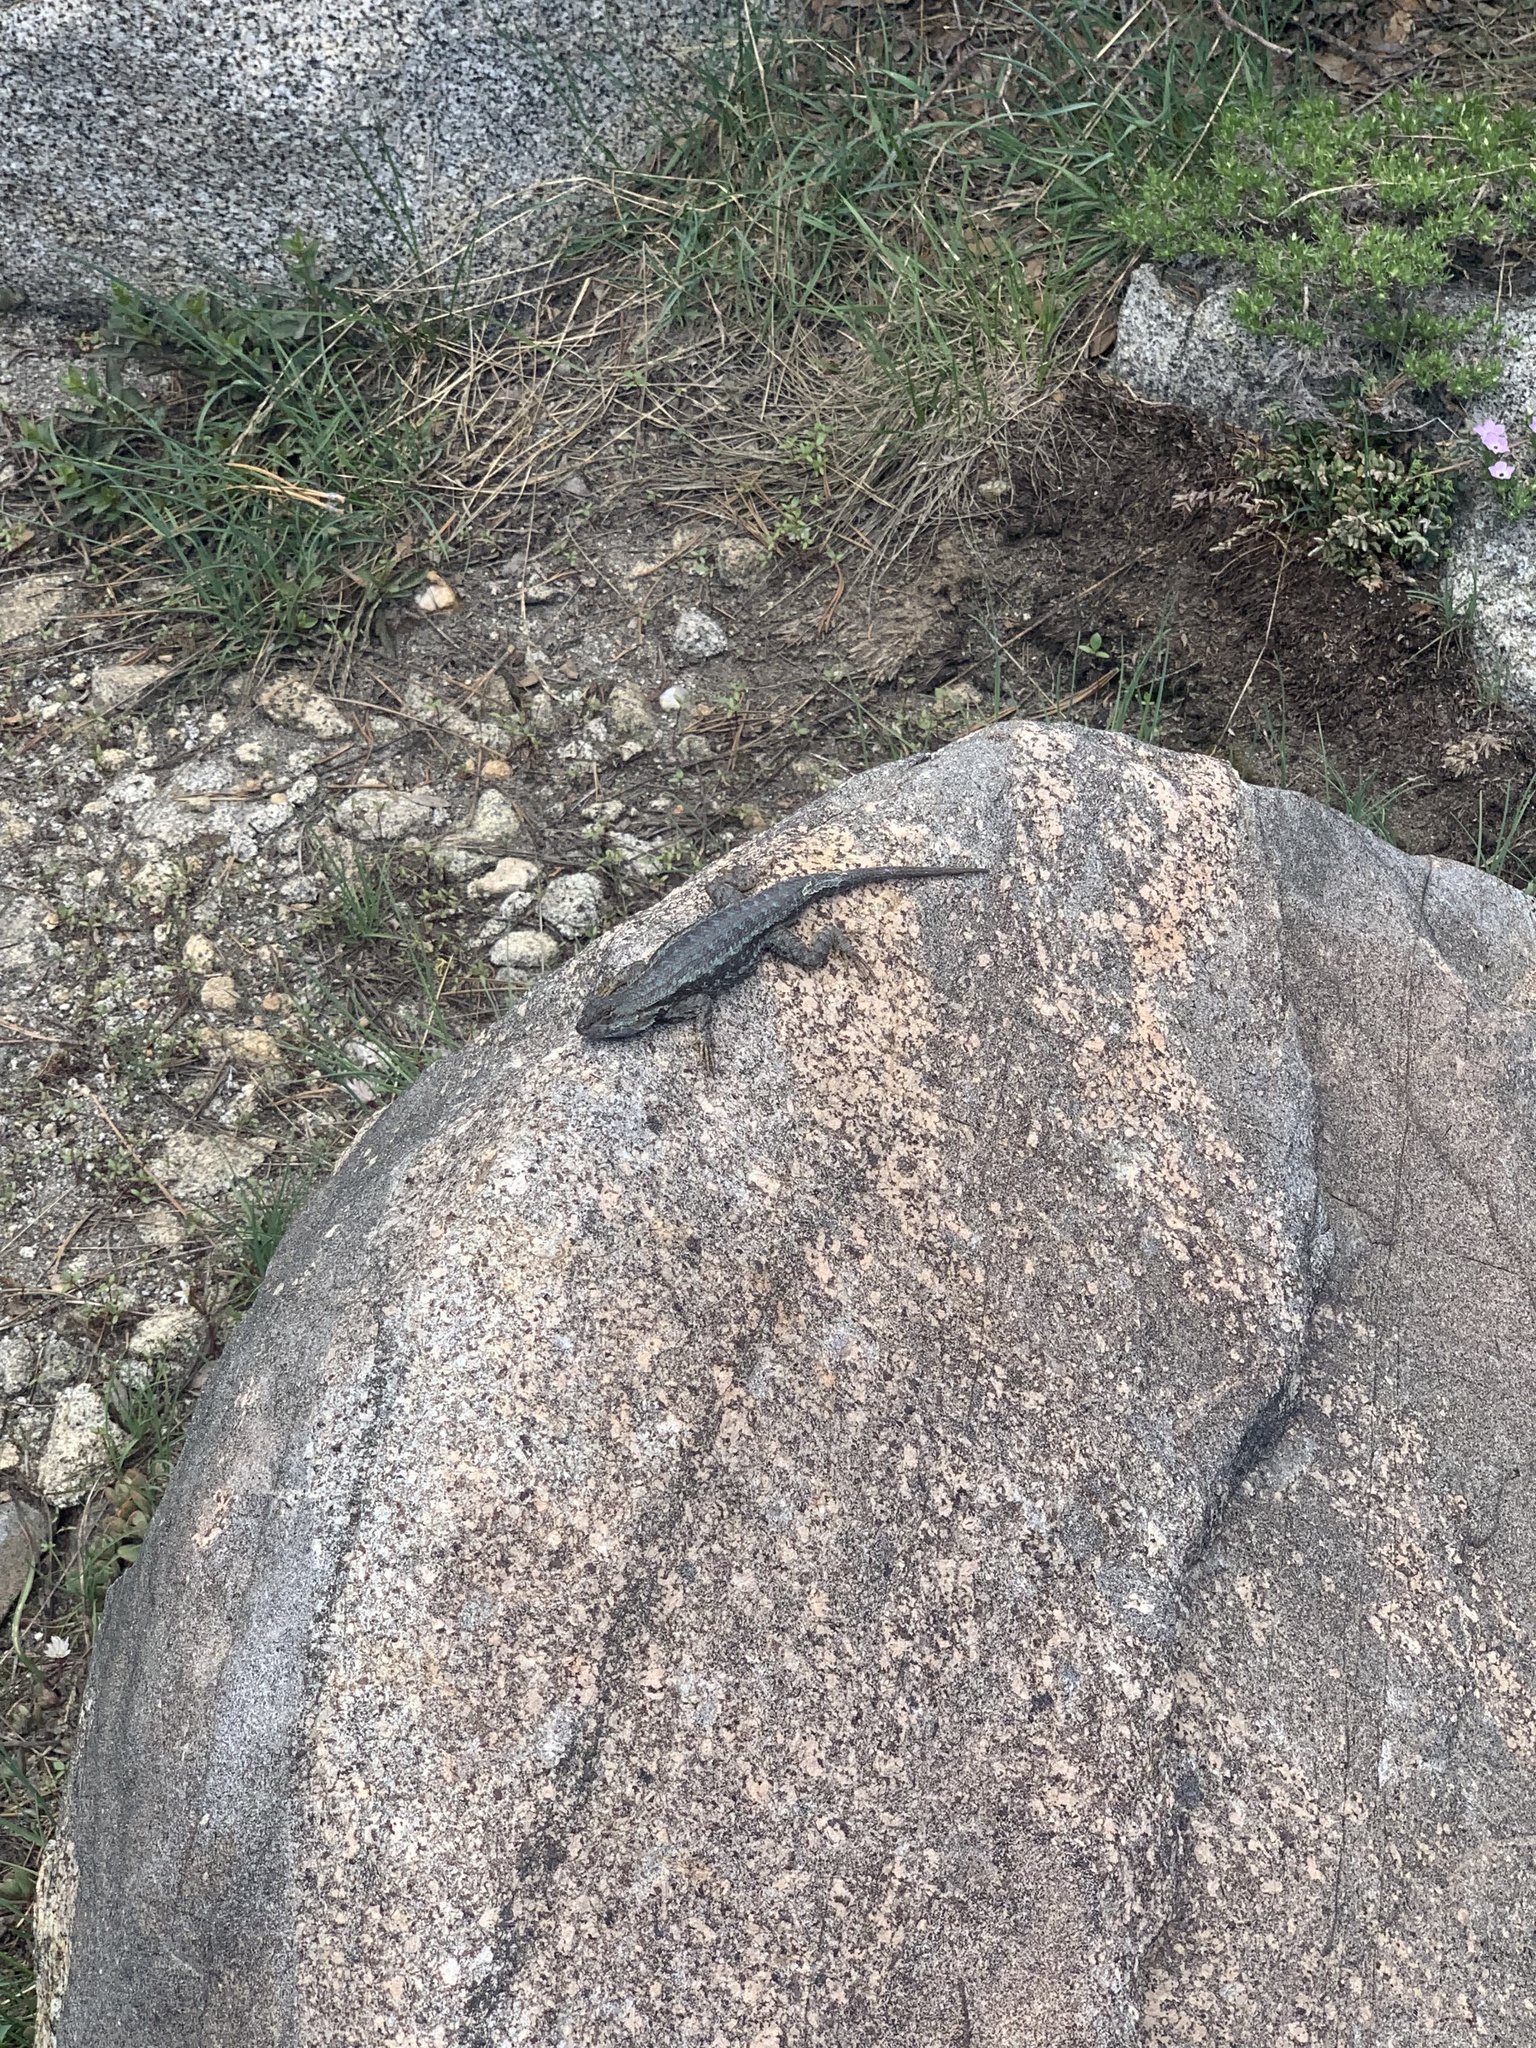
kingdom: Animalia
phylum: Chordata
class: Squamata
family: Phrynosomatidae
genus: Sceloporus
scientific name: Sceloporus occidentalis
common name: Western fence lizard
